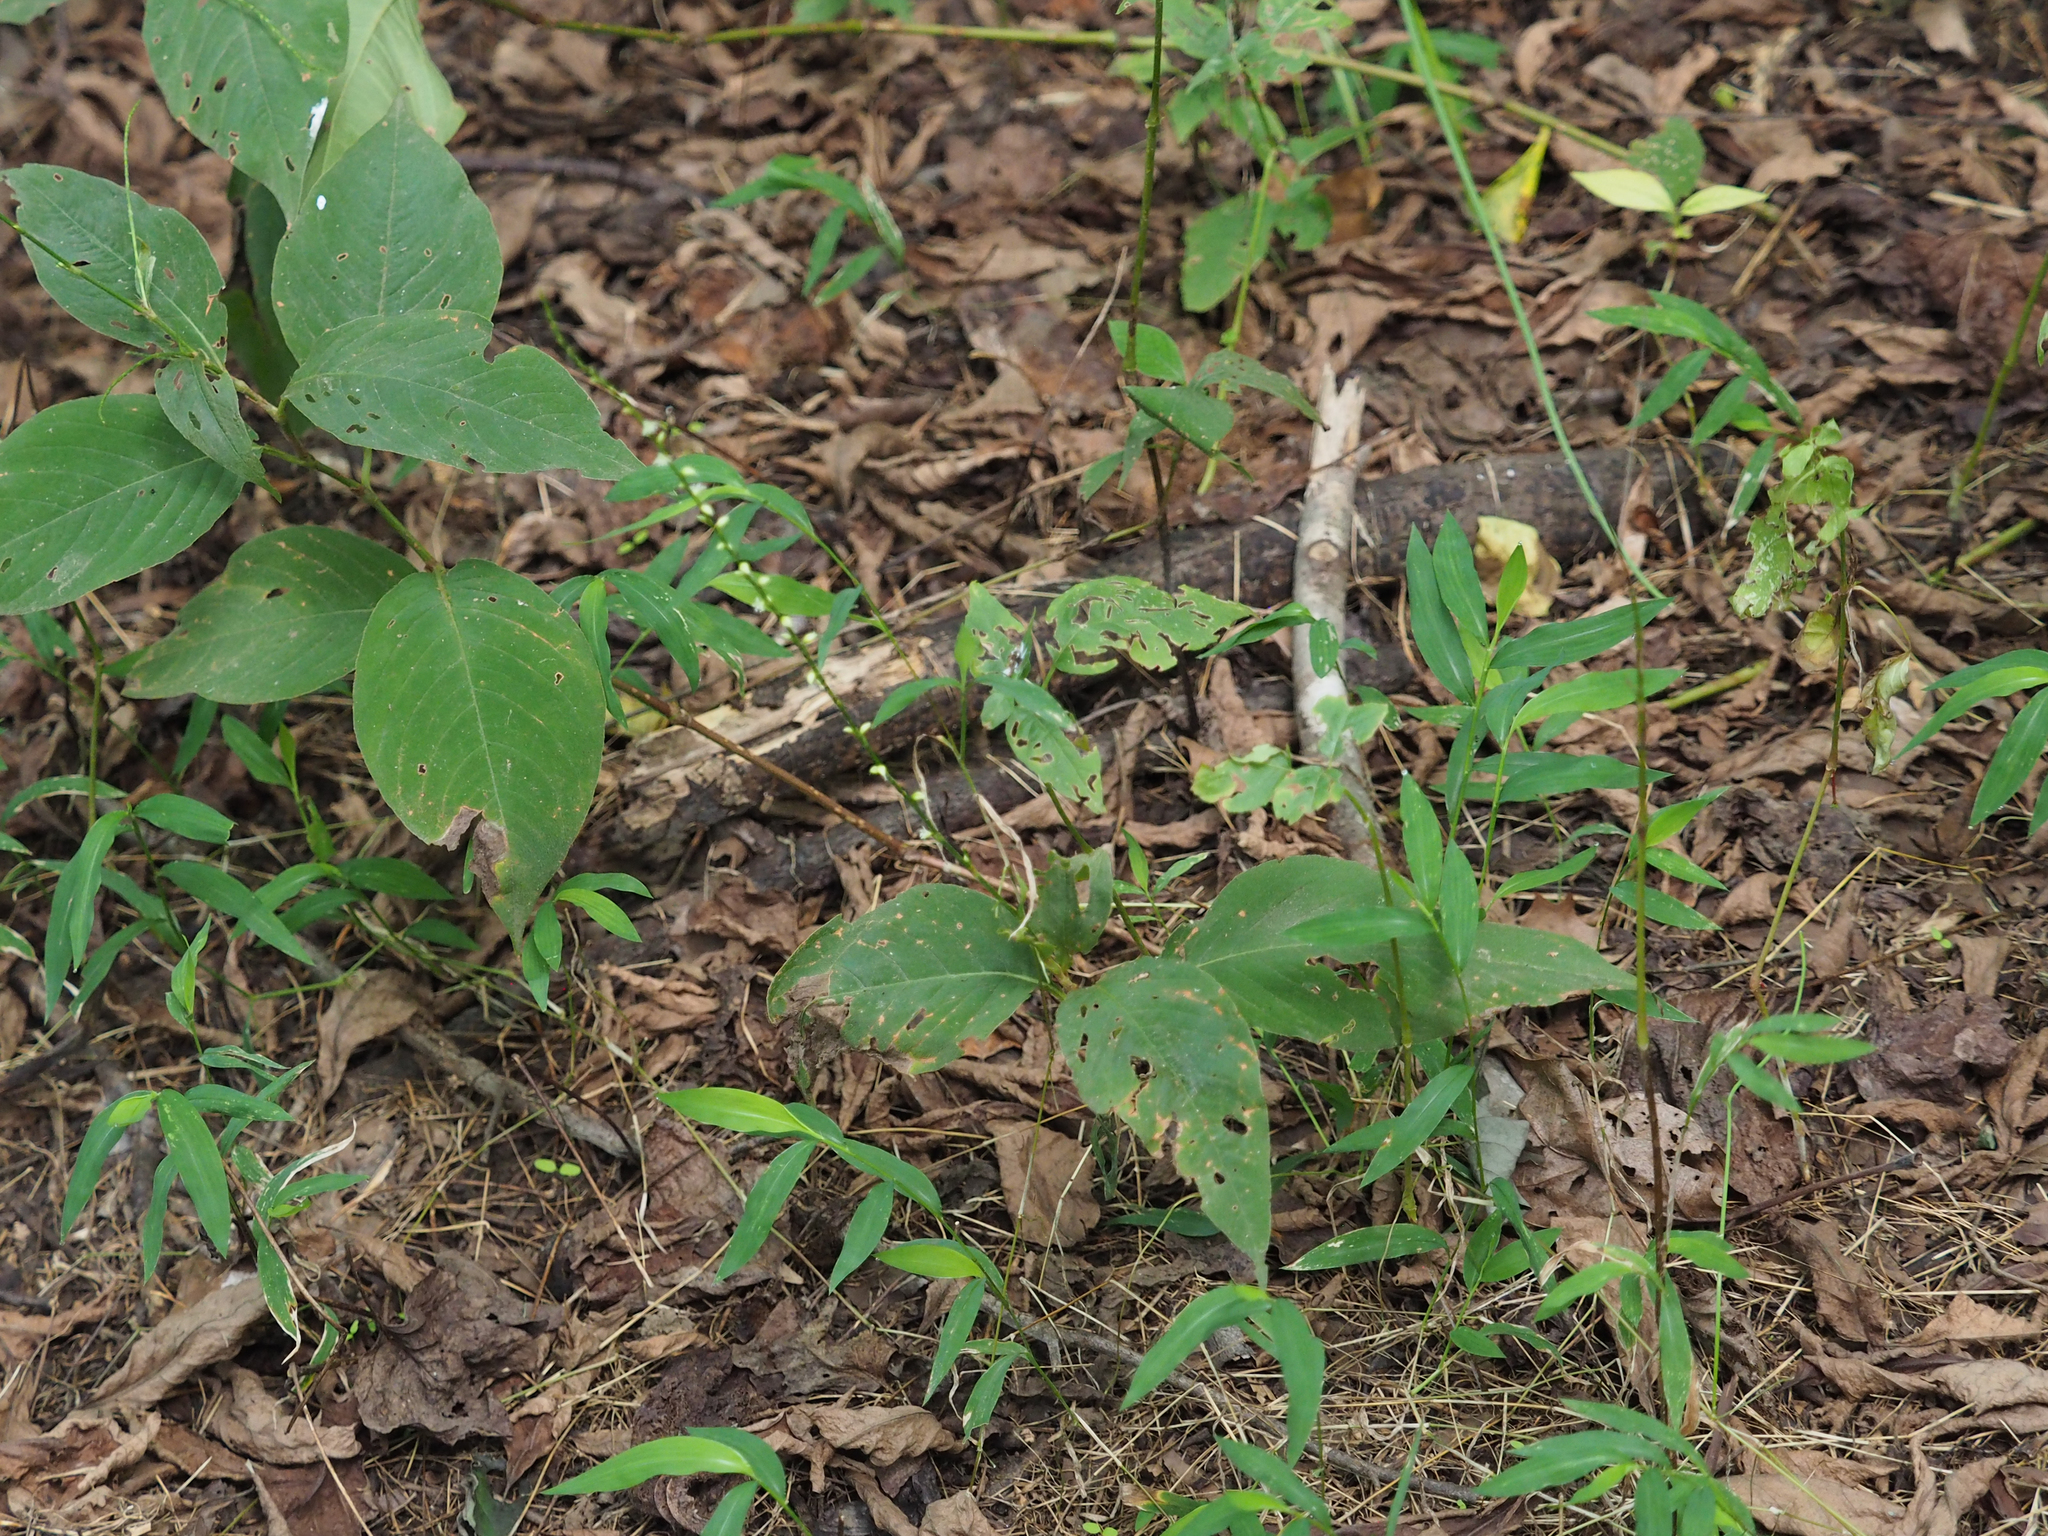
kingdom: Plantae
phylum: Tracheophyta
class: Magnoliopsida
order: Caryophyllales
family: Polygonaceae
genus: Persicaria
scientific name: Persicaria virginiana
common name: Jumpseed
